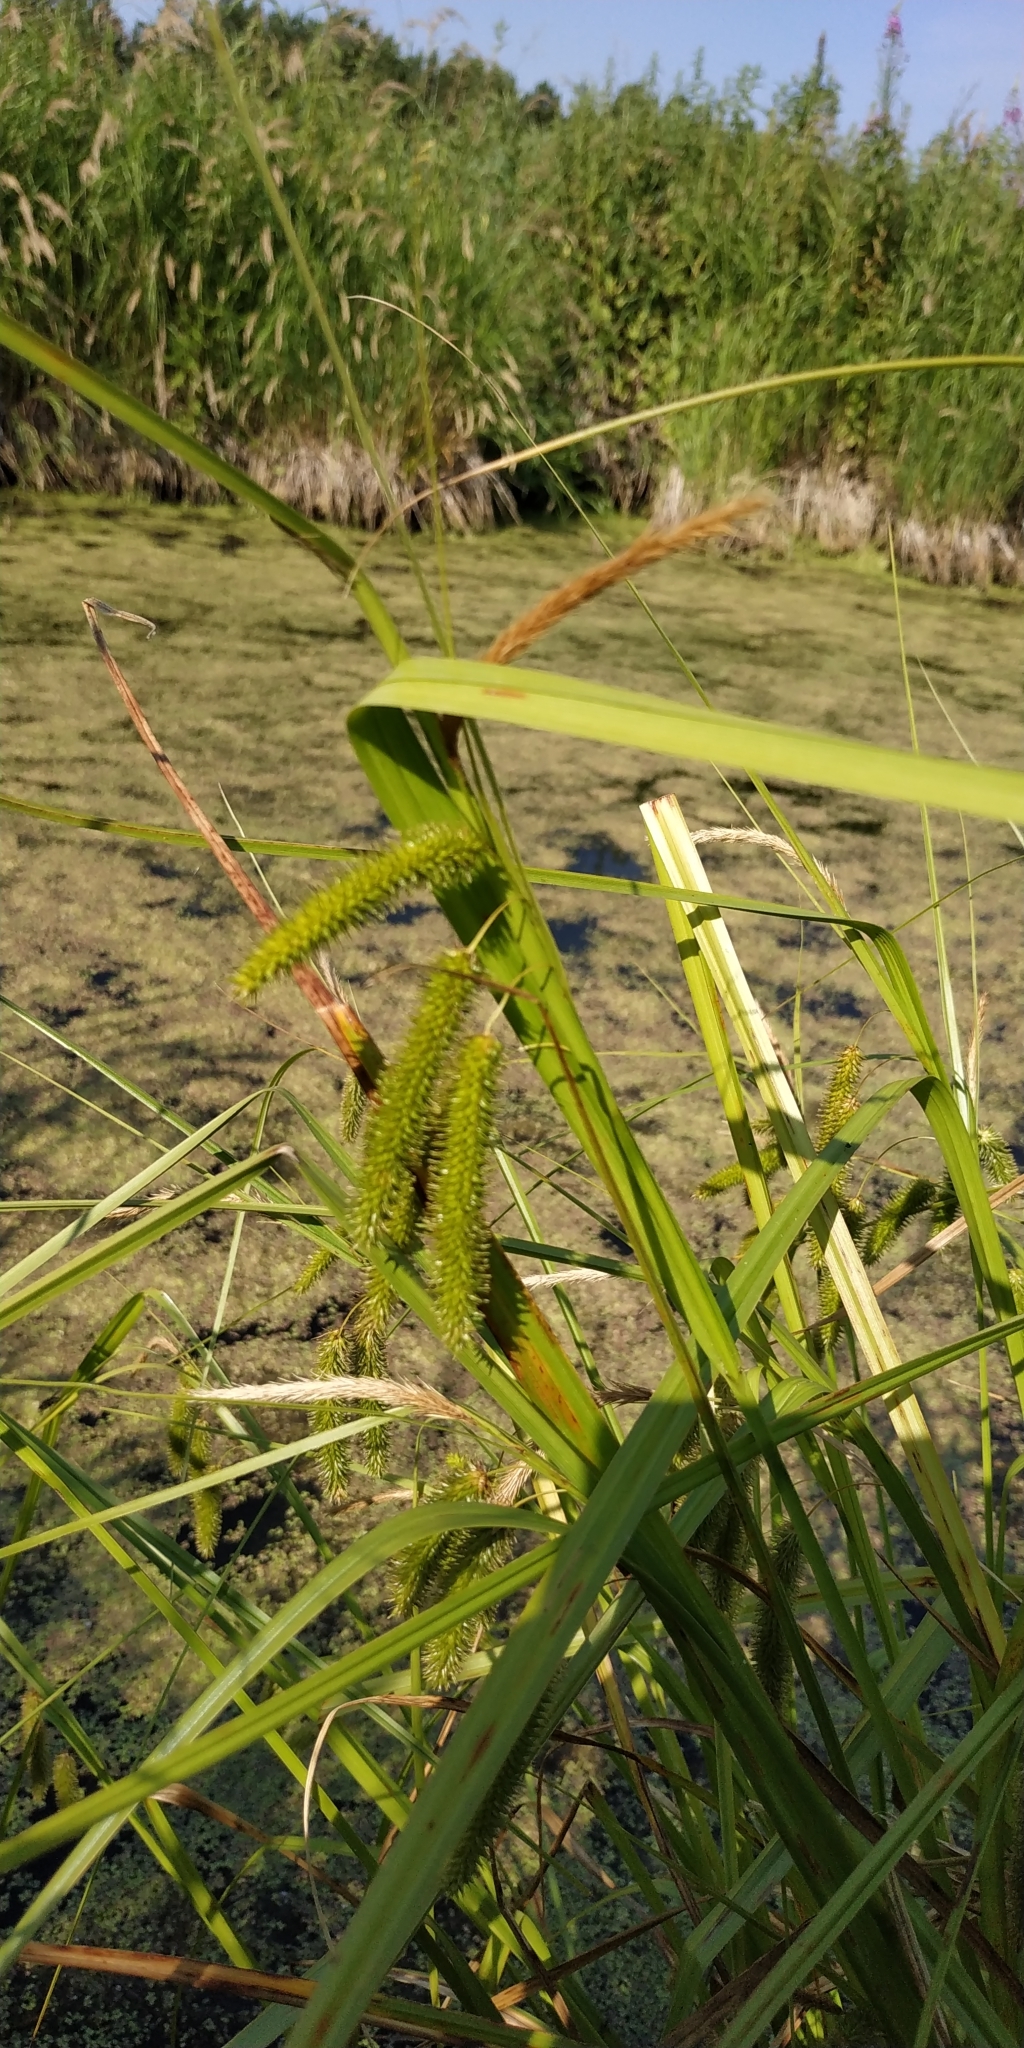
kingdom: Plantae
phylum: Tracheophyta
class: Liliopsida
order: Poales
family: Cyperaceae
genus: Carex
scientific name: Carex pseudocyperus
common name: Cyperus sedge
